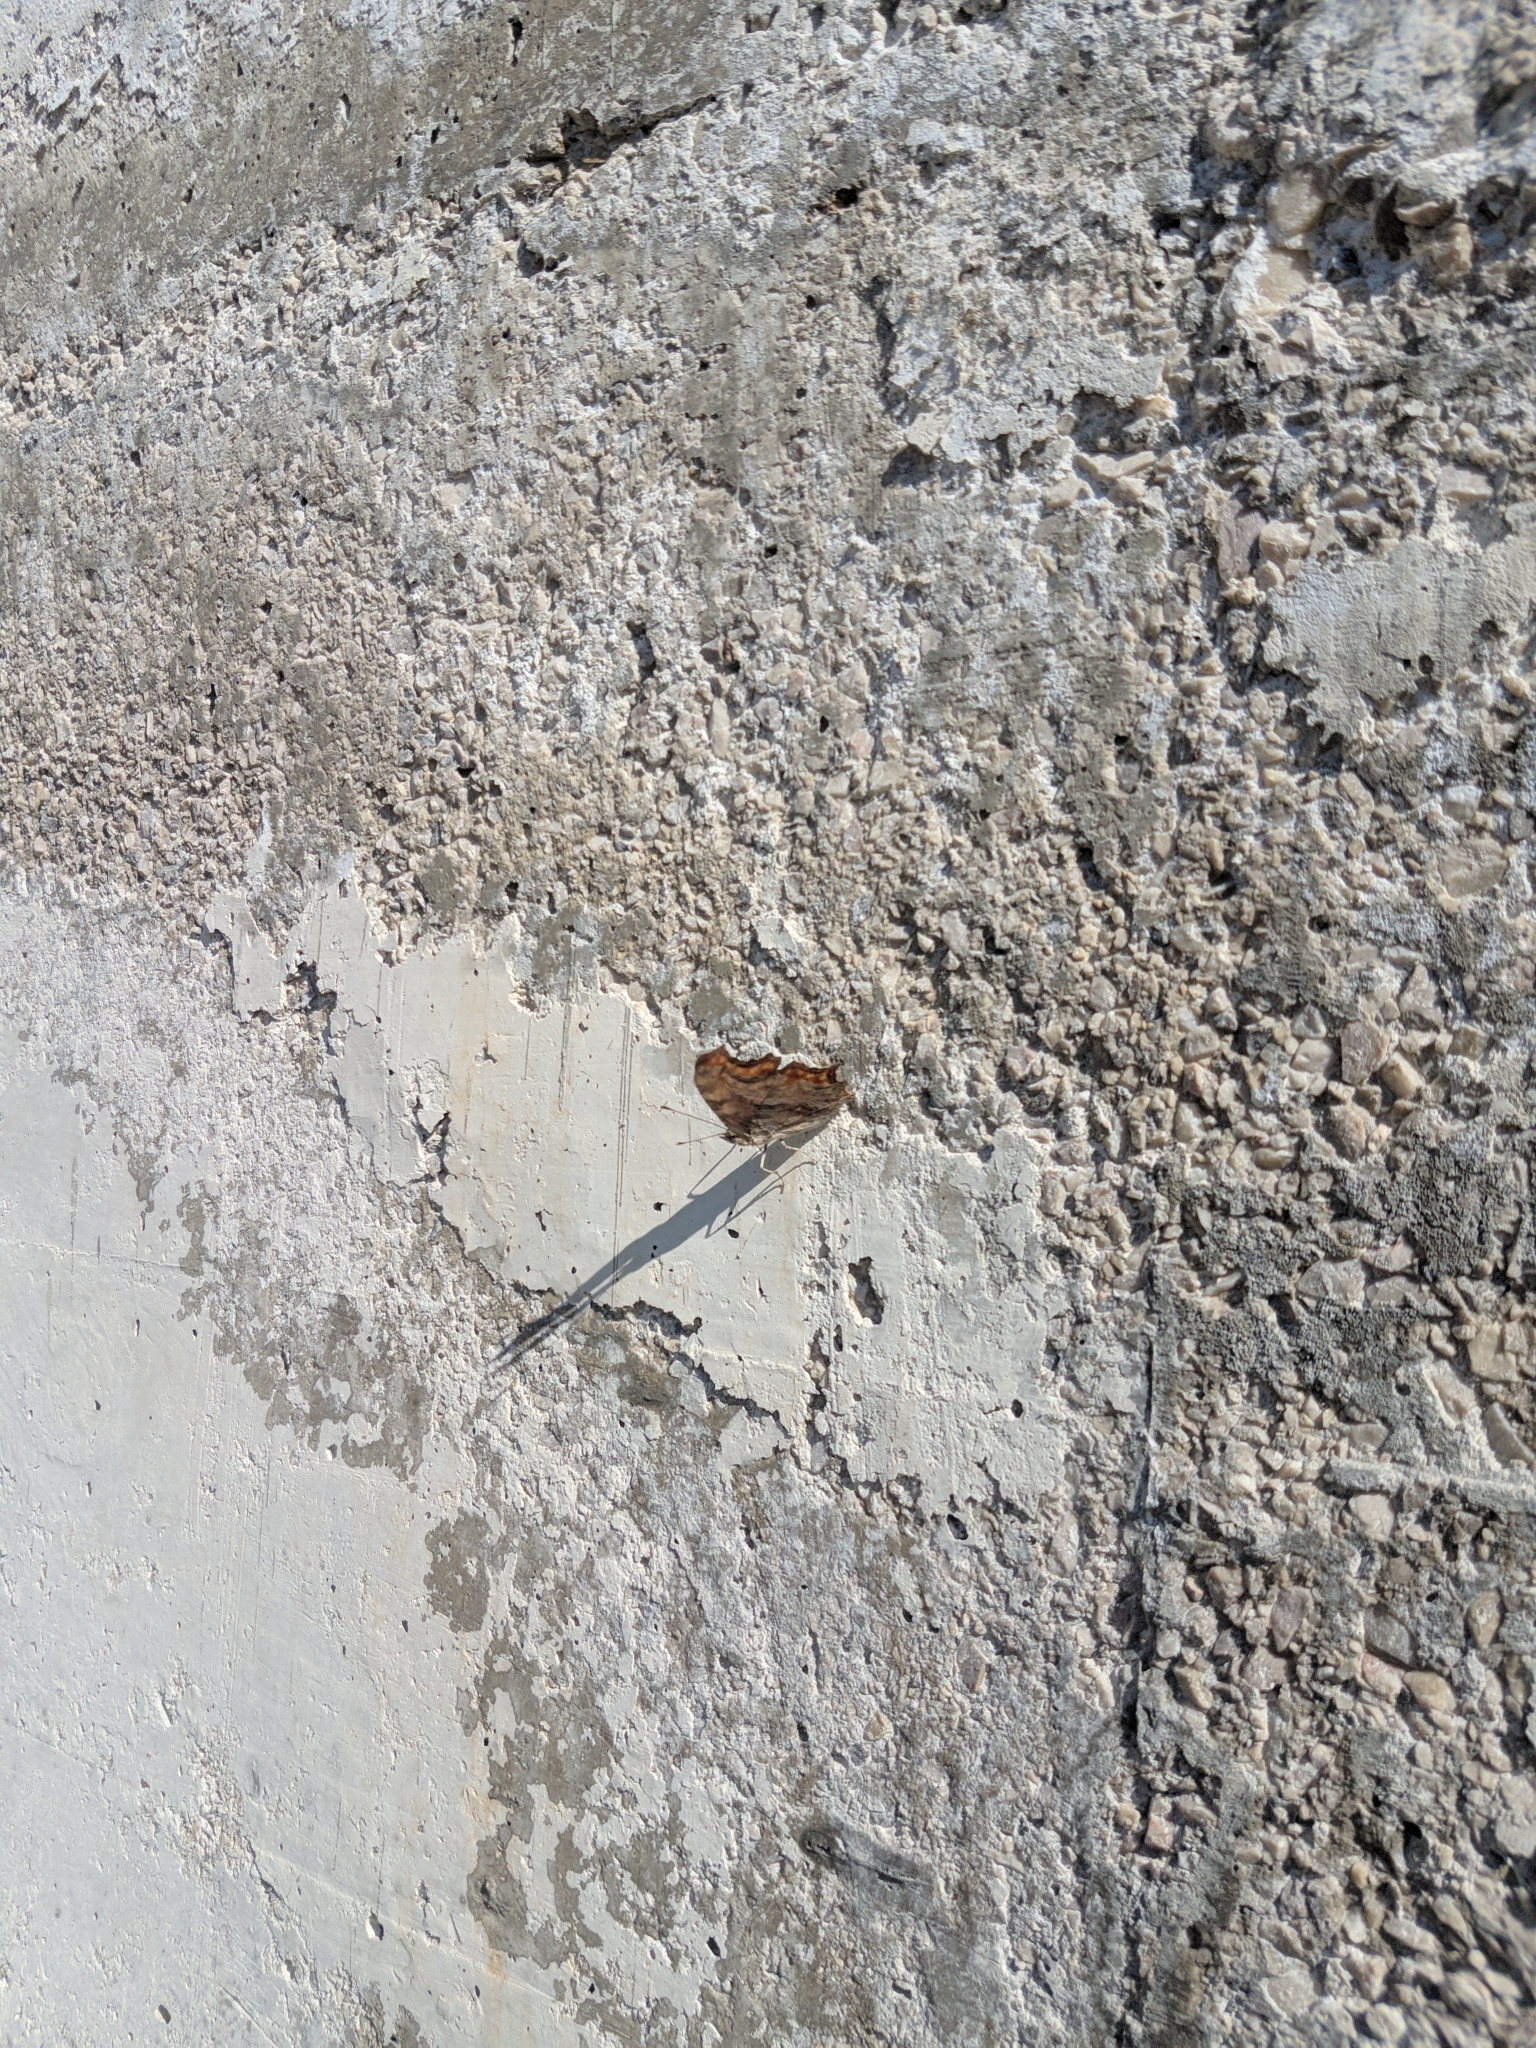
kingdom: Animalia
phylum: Arthropoda
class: Insecta
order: Lepidoptera
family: Nymphalidae
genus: Polygonia
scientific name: Polygonia egea
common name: Southern comma
